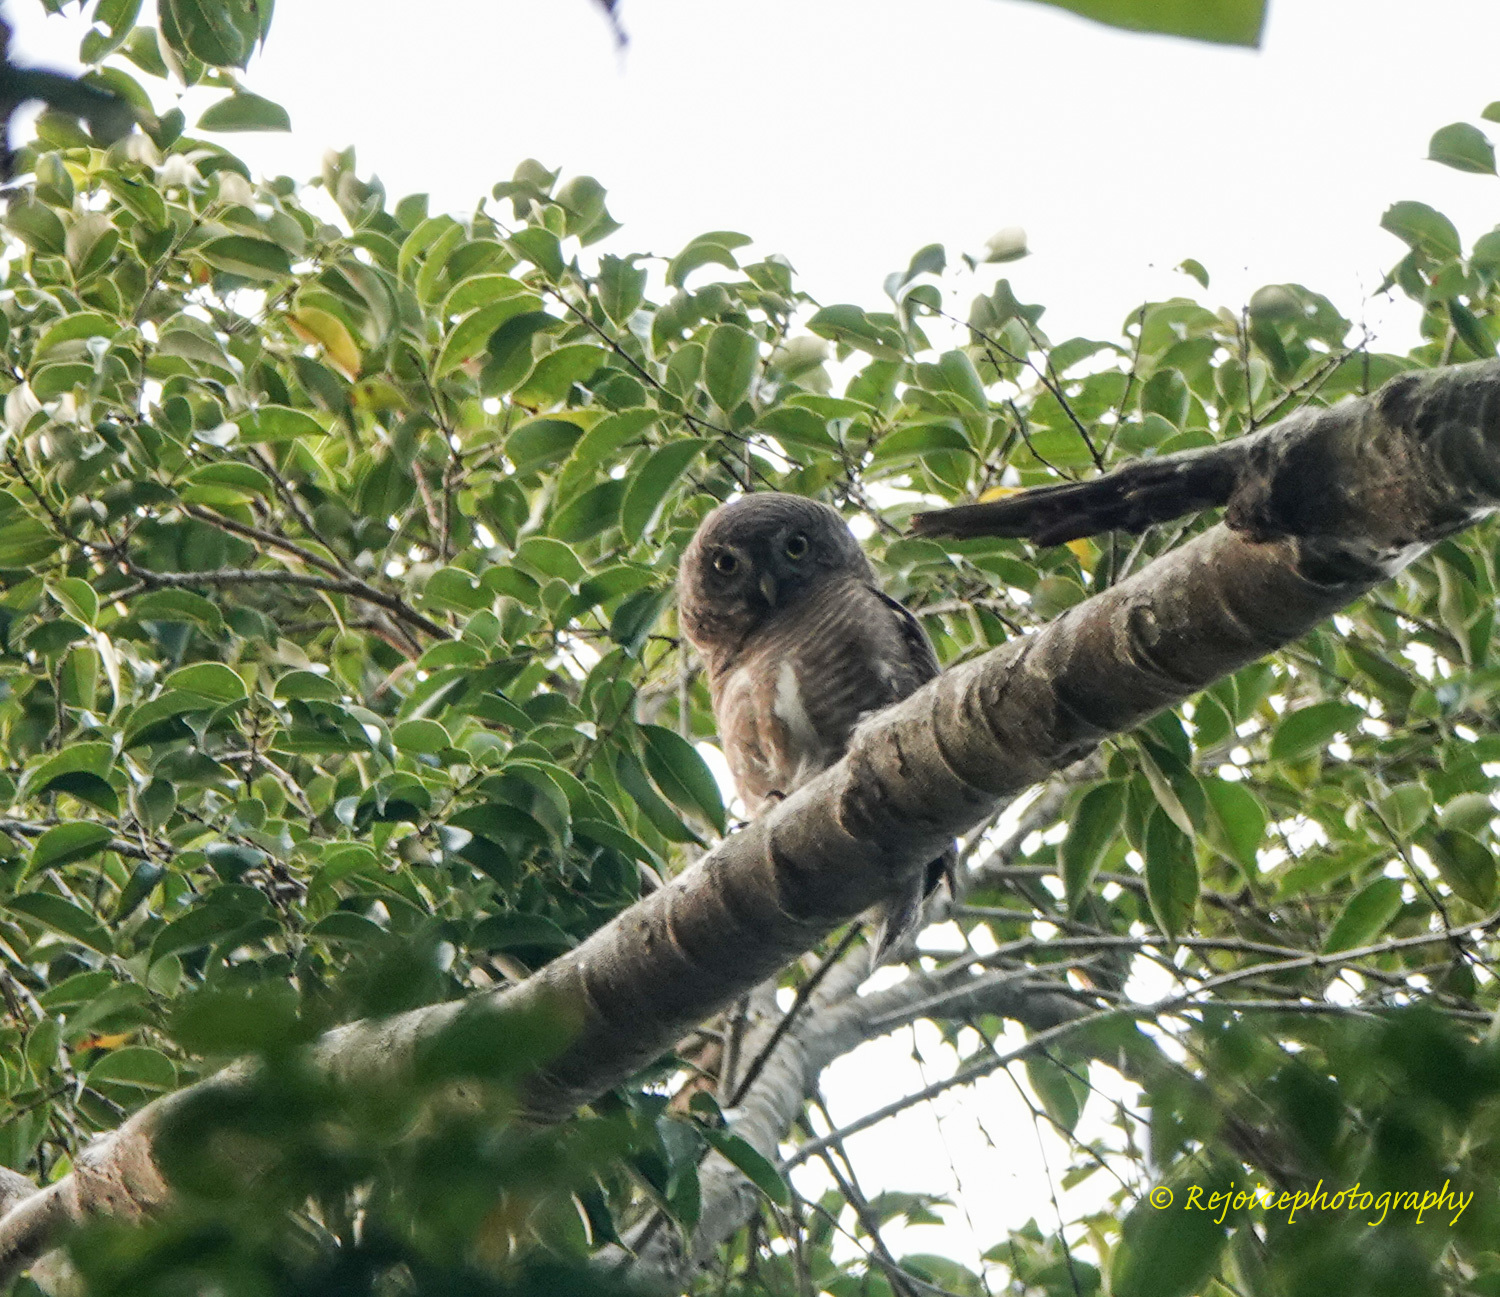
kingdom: Animalia
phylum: Chordata
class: Aves
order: Strigiformes
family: Strigidae
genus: Glaucidium
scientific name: Glaucidium cuculoides
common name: Asian barred owlet
